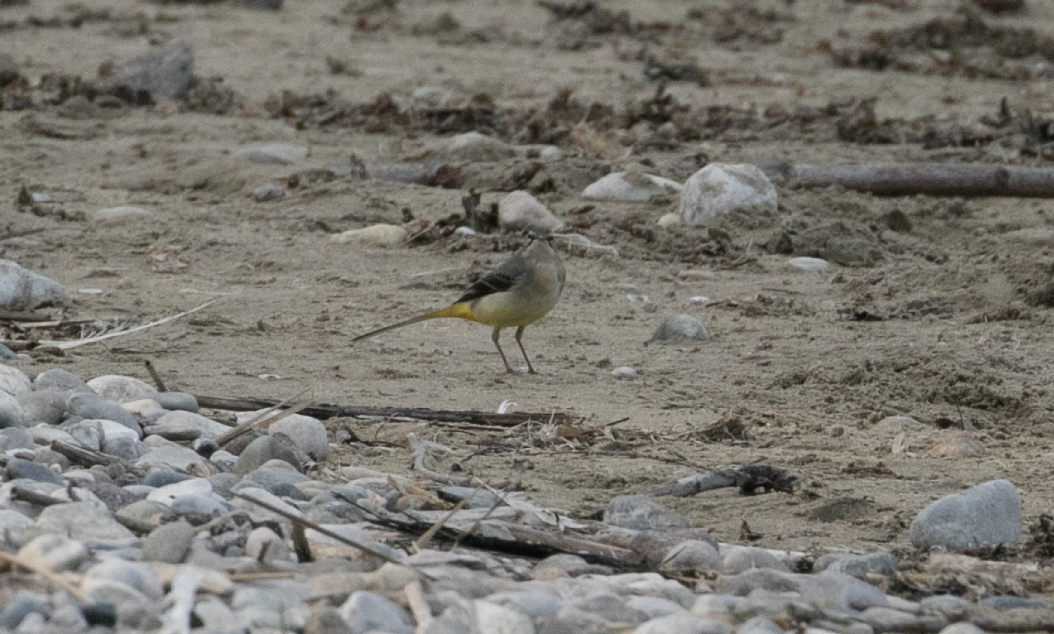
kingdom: Animalia
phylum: Chordata
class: Aves
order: Passeriformes
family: Motacillidae
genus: Motacilla
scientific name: Motacilla cinerea
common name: Grey wagtail
